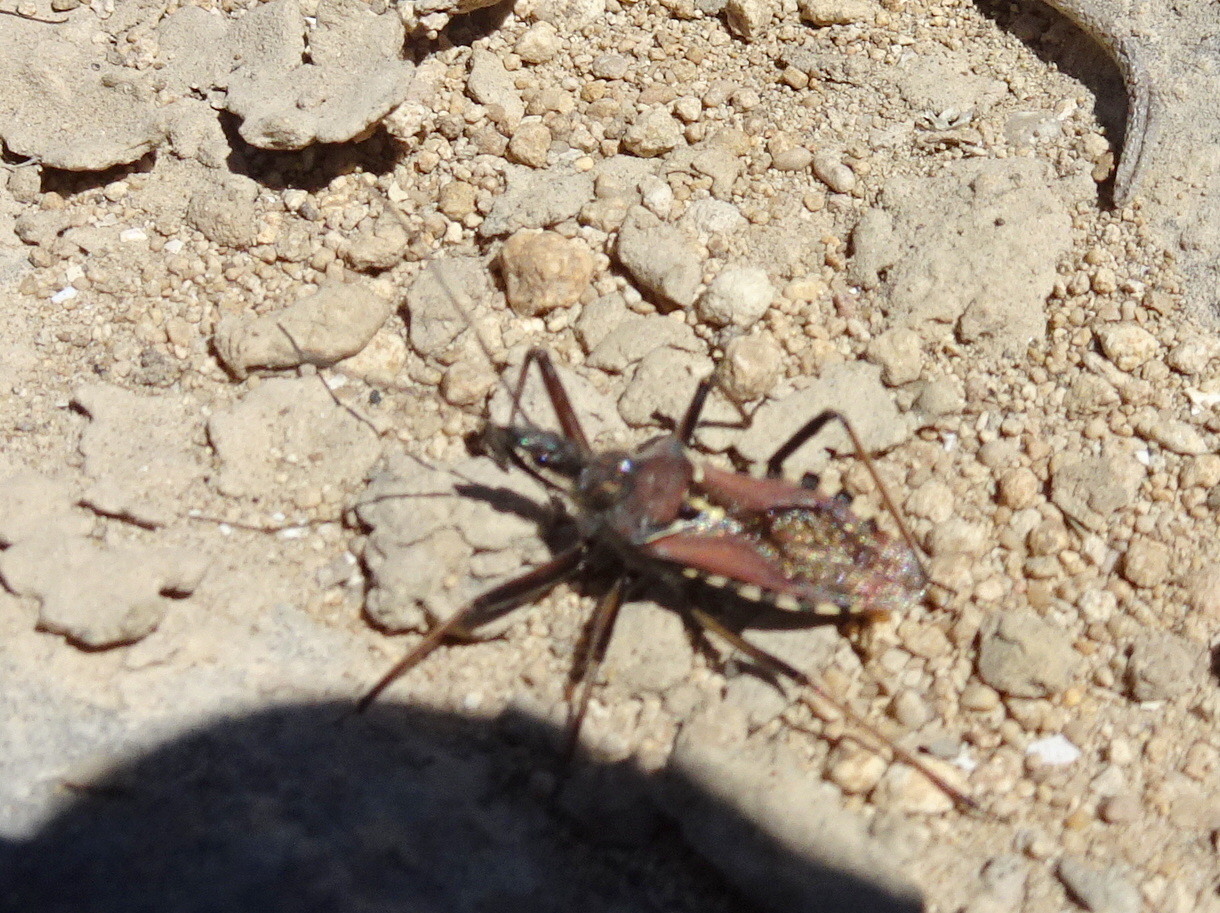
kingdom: Animalia
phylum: Arthropoda
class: Insecta
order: Hemiptera
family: Reduviidae
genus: Rhynocoris
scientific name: Rhynocoris erythropus
